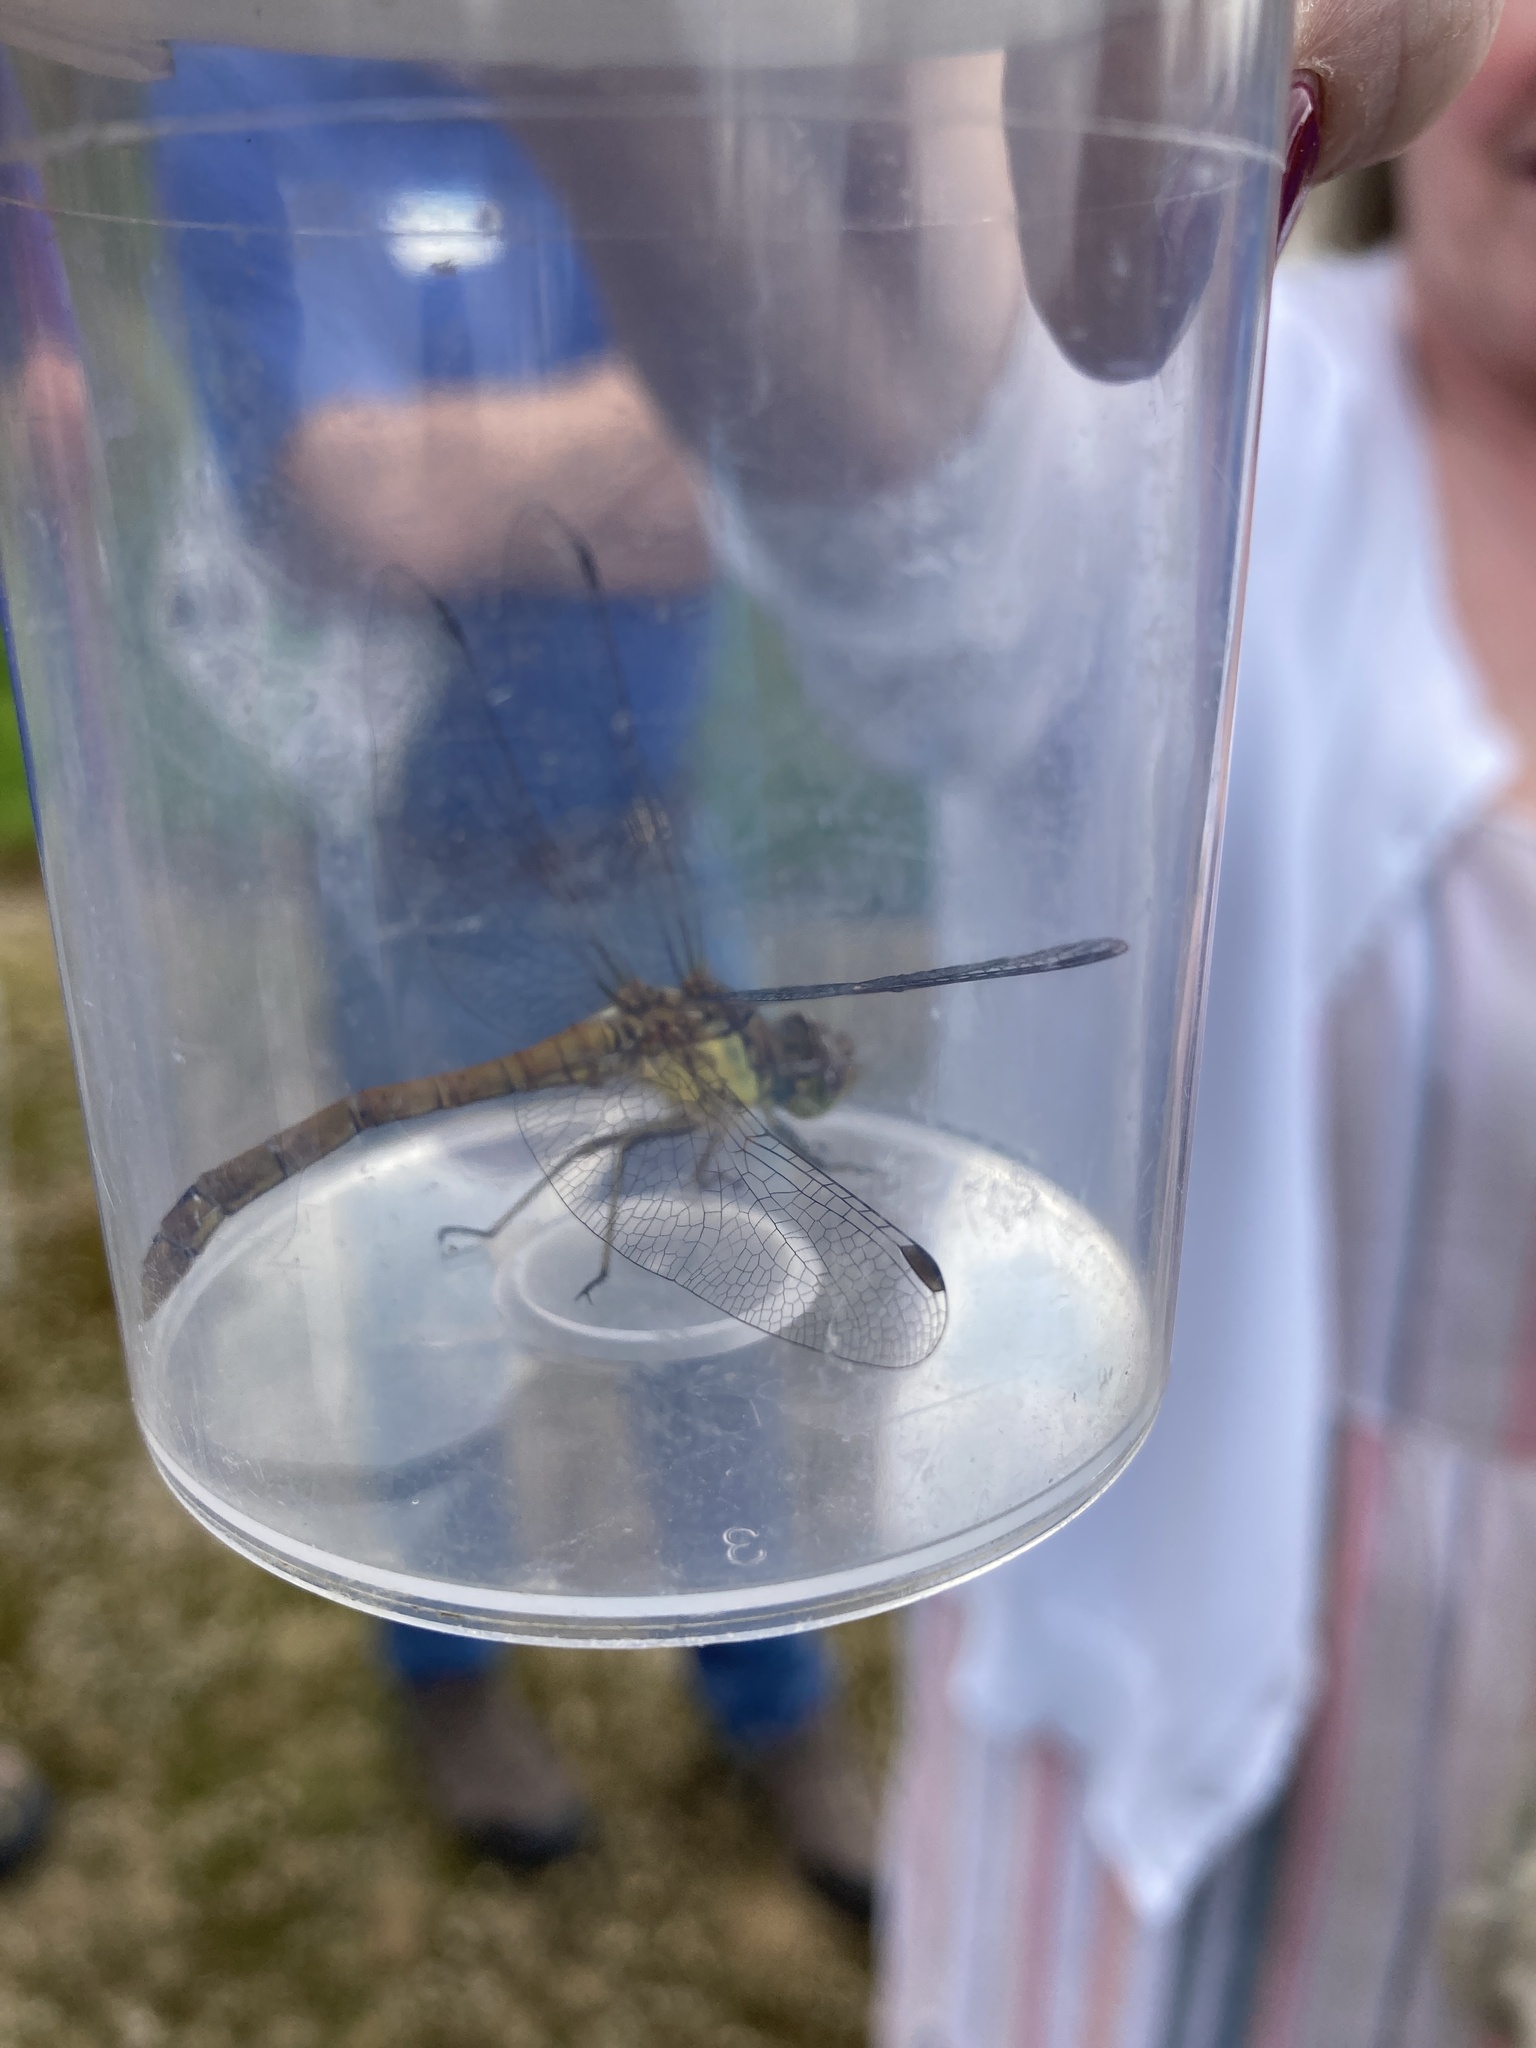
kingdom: Animalia
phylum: Arthropoda
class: Insecta
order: Odonata
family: Libellulidae
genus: Sympetrum
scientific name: Sympetrum striolatum
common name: Common darter
